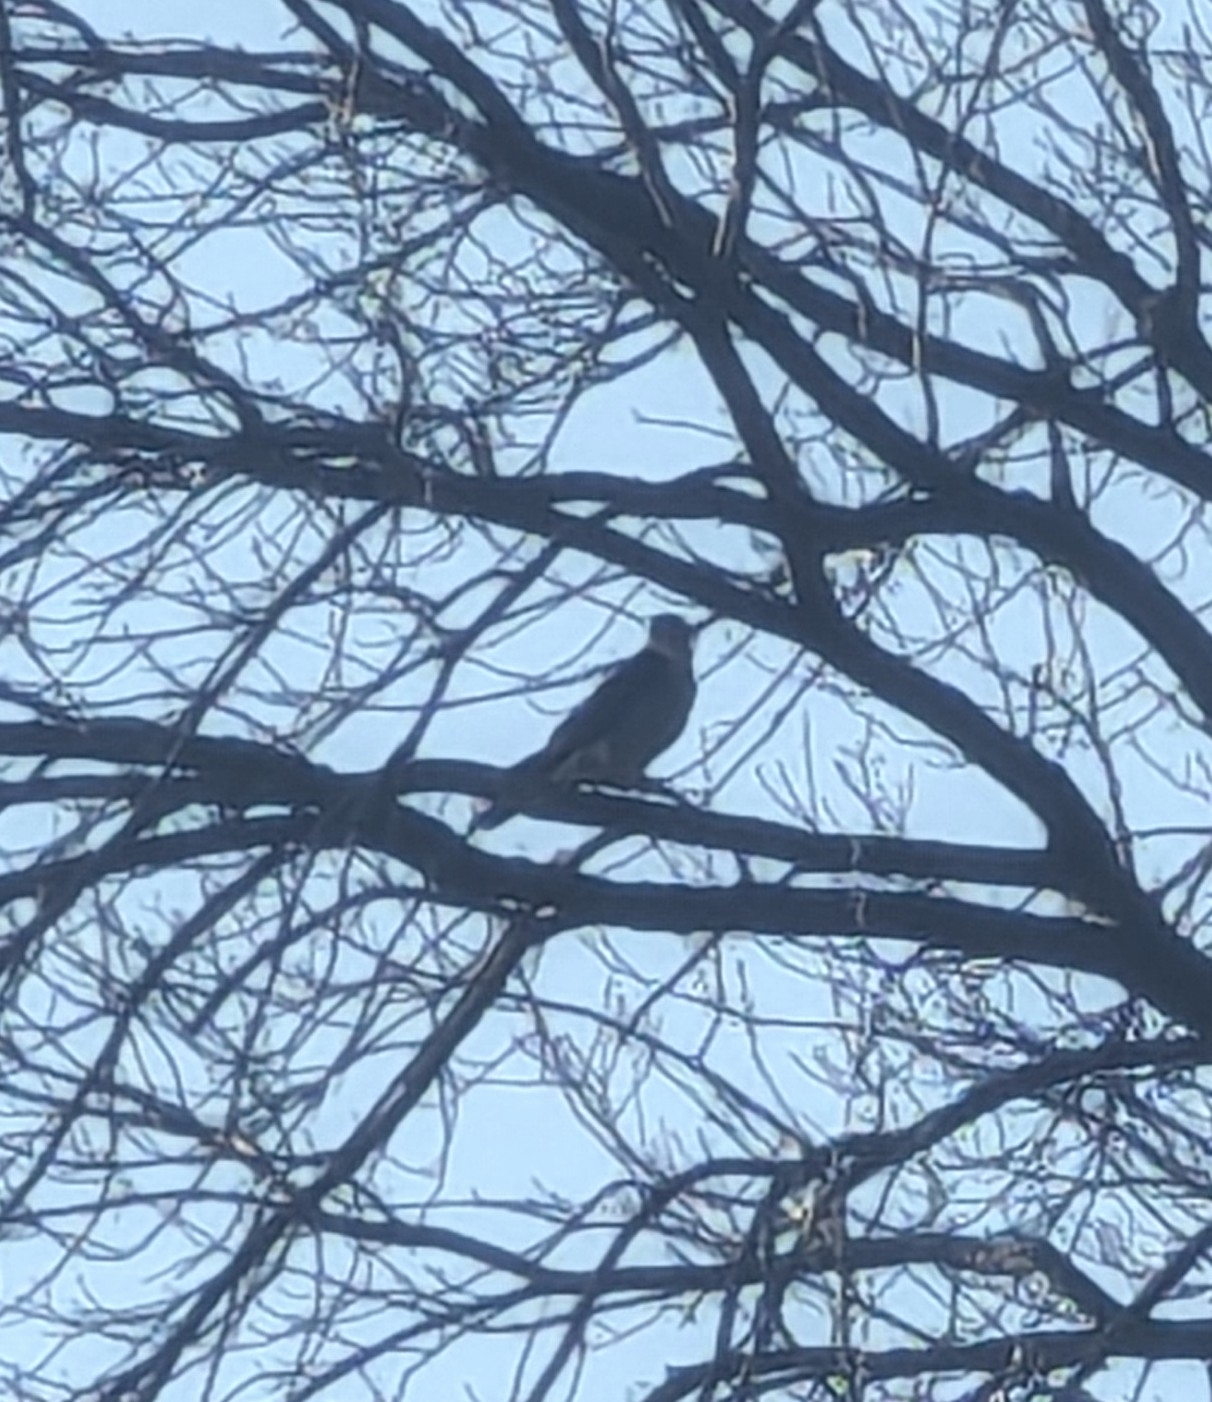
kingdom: Animalia
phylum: Chordata
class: Aves
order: Falconiformes
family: Falconidae
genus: Falco
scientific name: Falco columbarius
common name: Merlin
